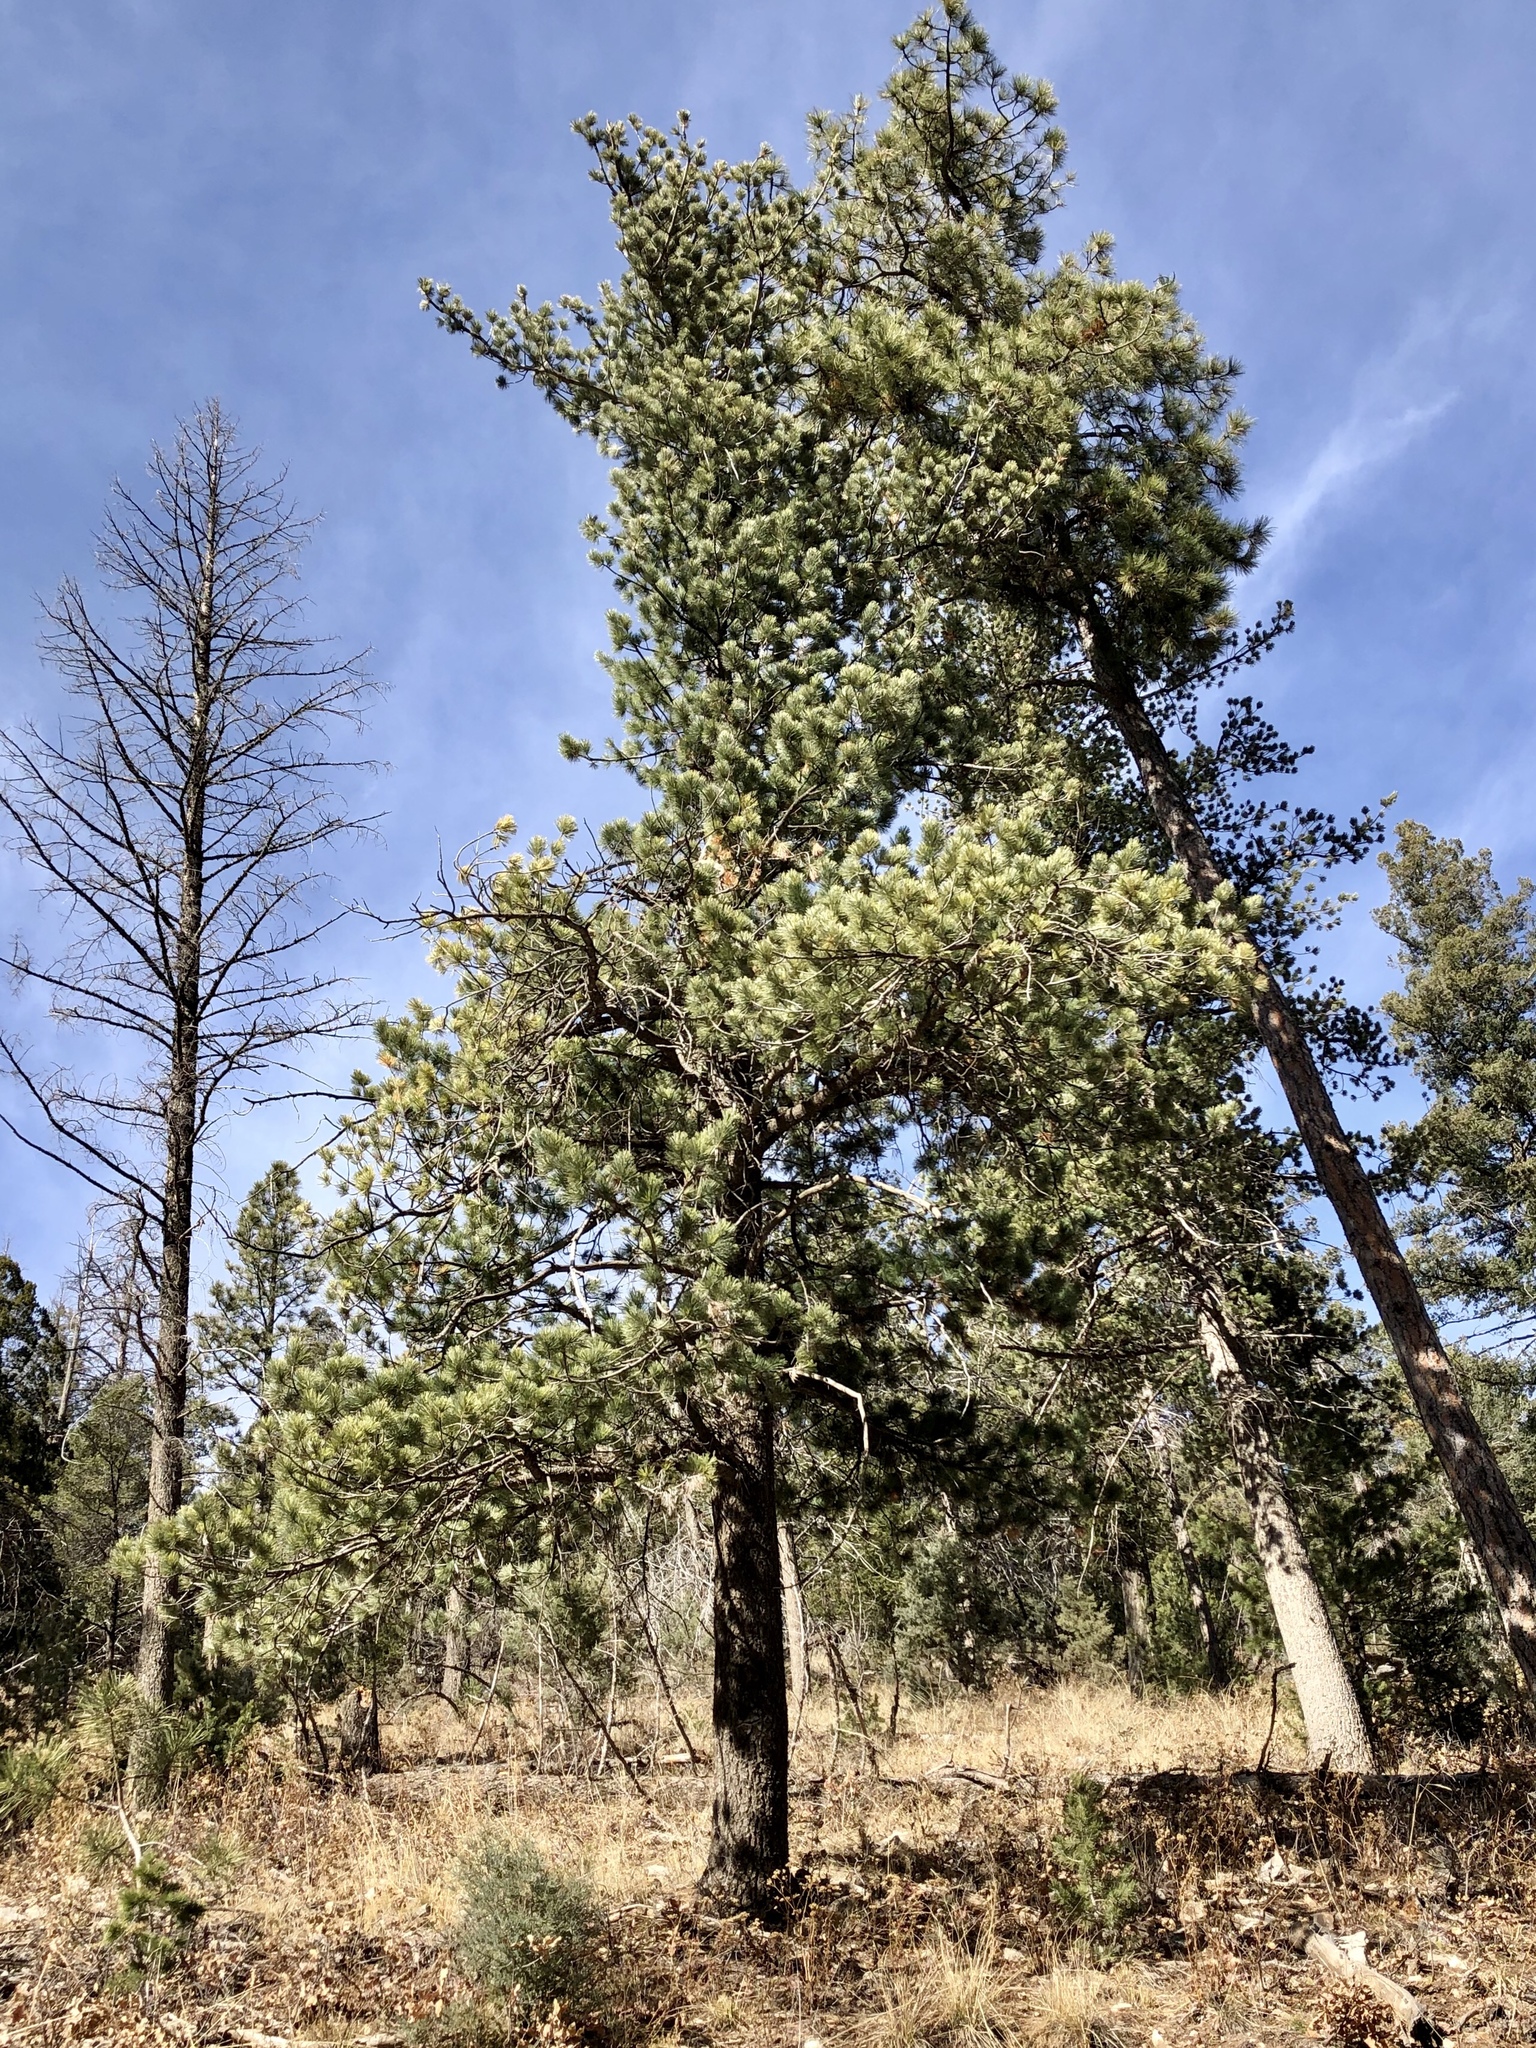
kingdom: Plantae
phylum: Tracheophyta
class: Pinopsida
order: Pinales
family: Pinaceae
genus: Pinus
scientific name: Pinus strobiformis
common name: Southwestern white pine
